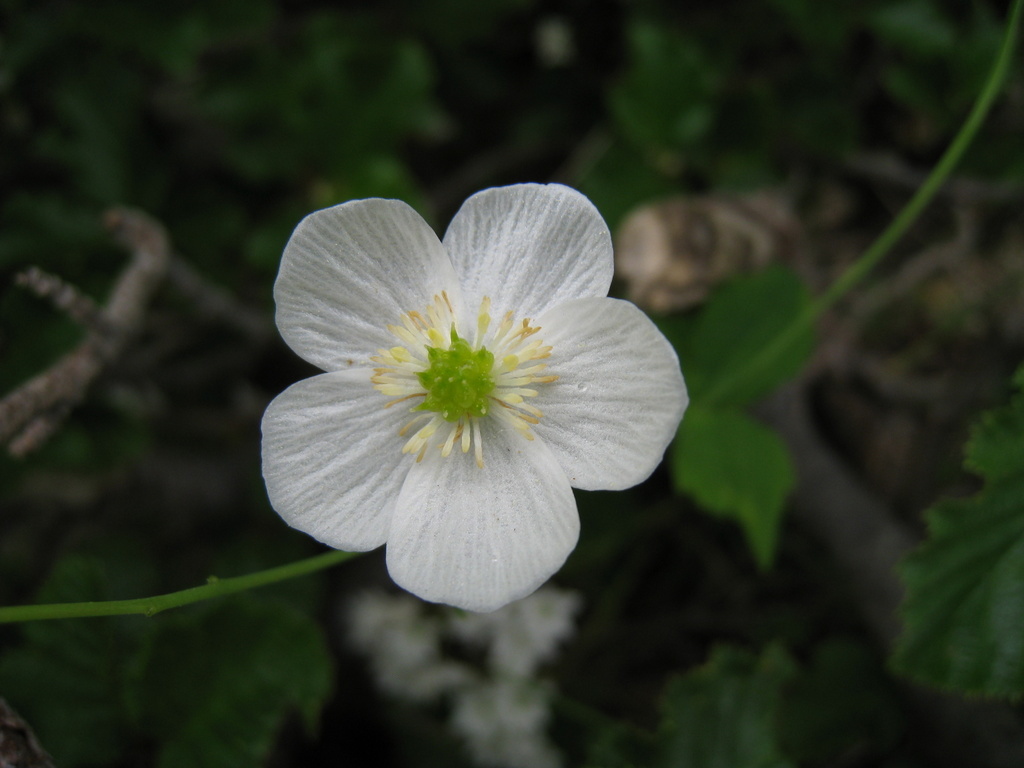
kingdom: Plantae
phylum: Tracheophyta
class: Magnoliopsida
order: Ranunculales
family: Ranunculaceae
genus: Ranunculus
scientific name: Ranunculus platanifolius
